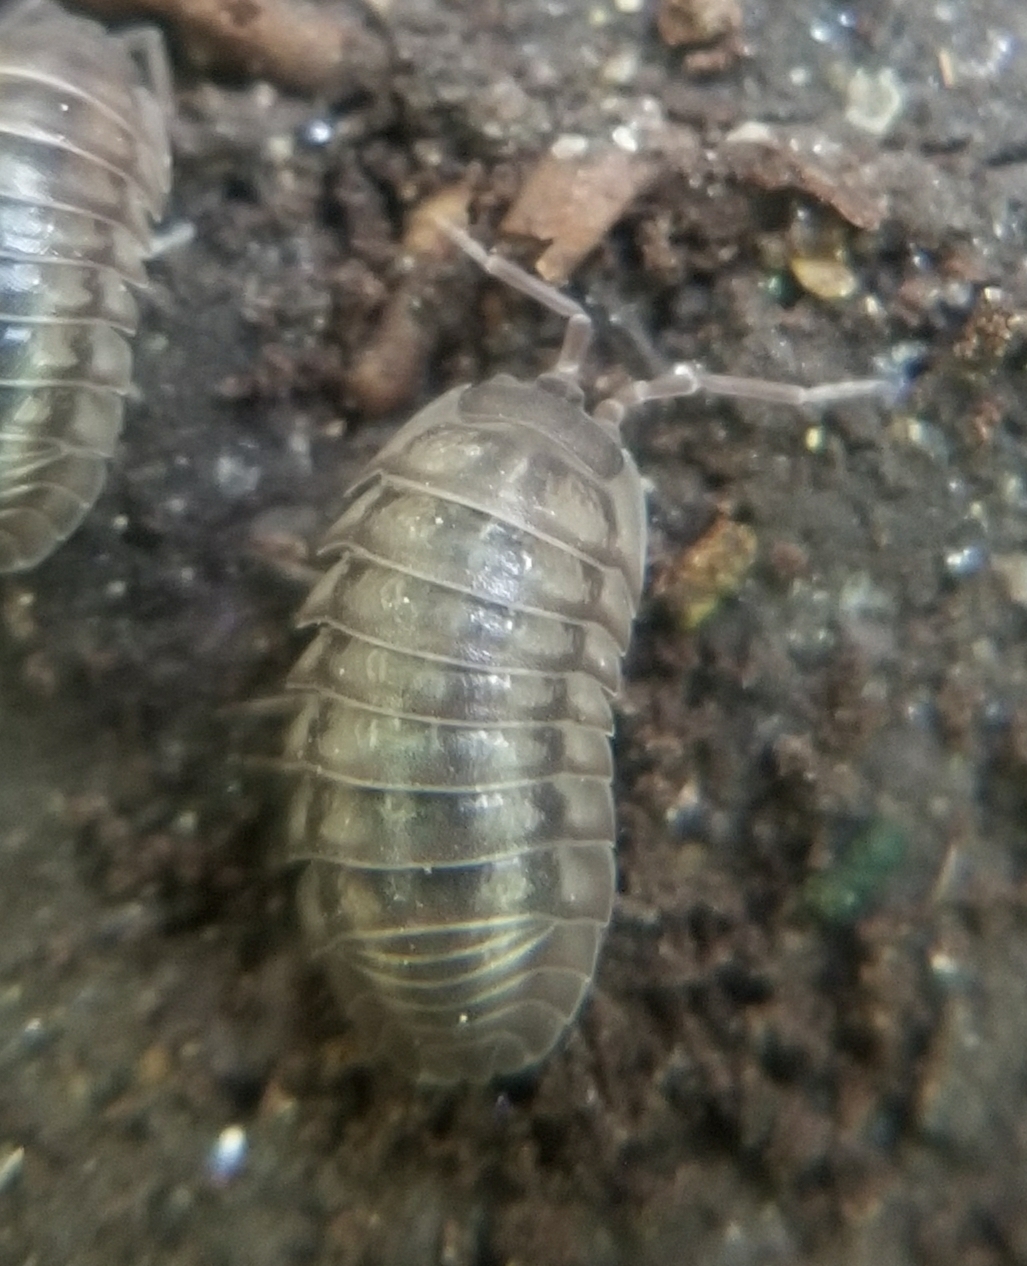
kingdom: Animalia
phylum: Arthropoda
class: Malacostraca
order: Isopoda
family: Armadillidiidae
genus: Armadillidium
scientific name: Armadillidium nasatum
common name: Isopod
